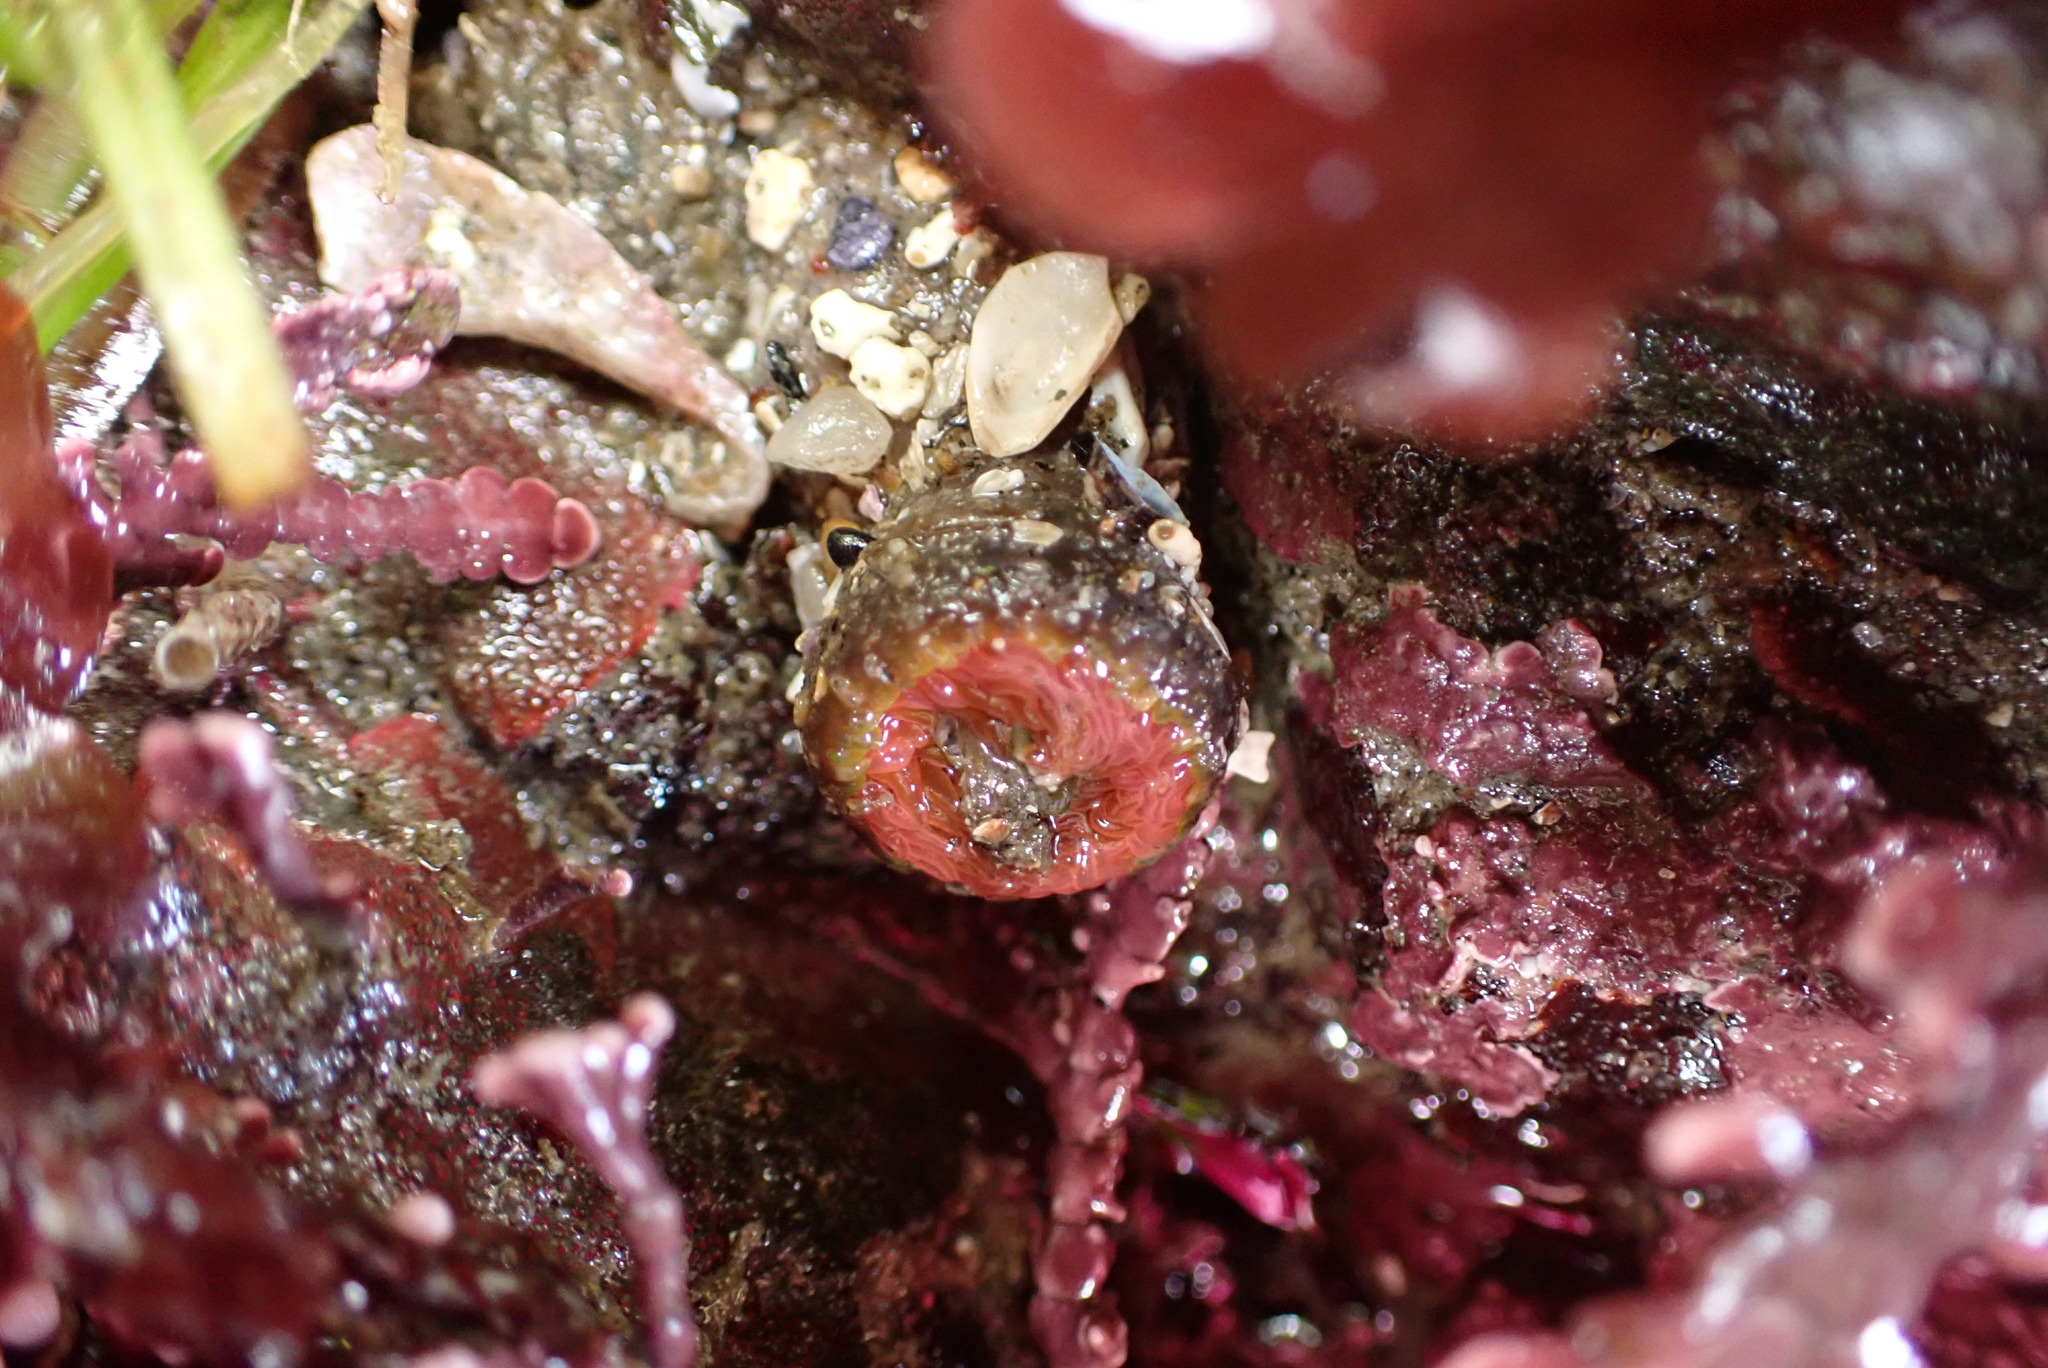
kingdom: Animalia
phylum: Cnidaria
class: Anthozoa
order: Actiniaria
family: Actiniidae
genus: Anthopleura
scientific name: Anthopleura artemisia
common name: Buried sea anemone
